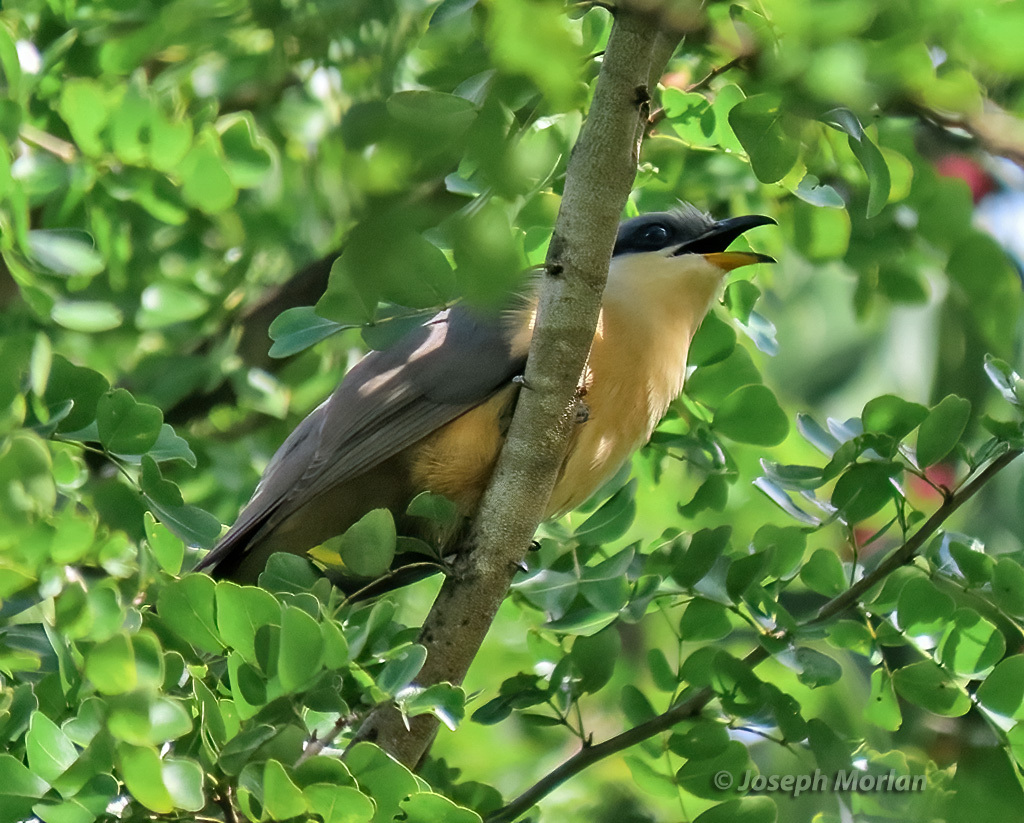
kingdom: Animalia
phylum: Chordata
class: Aves
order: Cuculiformes
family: Cuculidae
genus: Coccyzus
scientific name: Coccyzus minor
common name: Mangrove cuckoo
